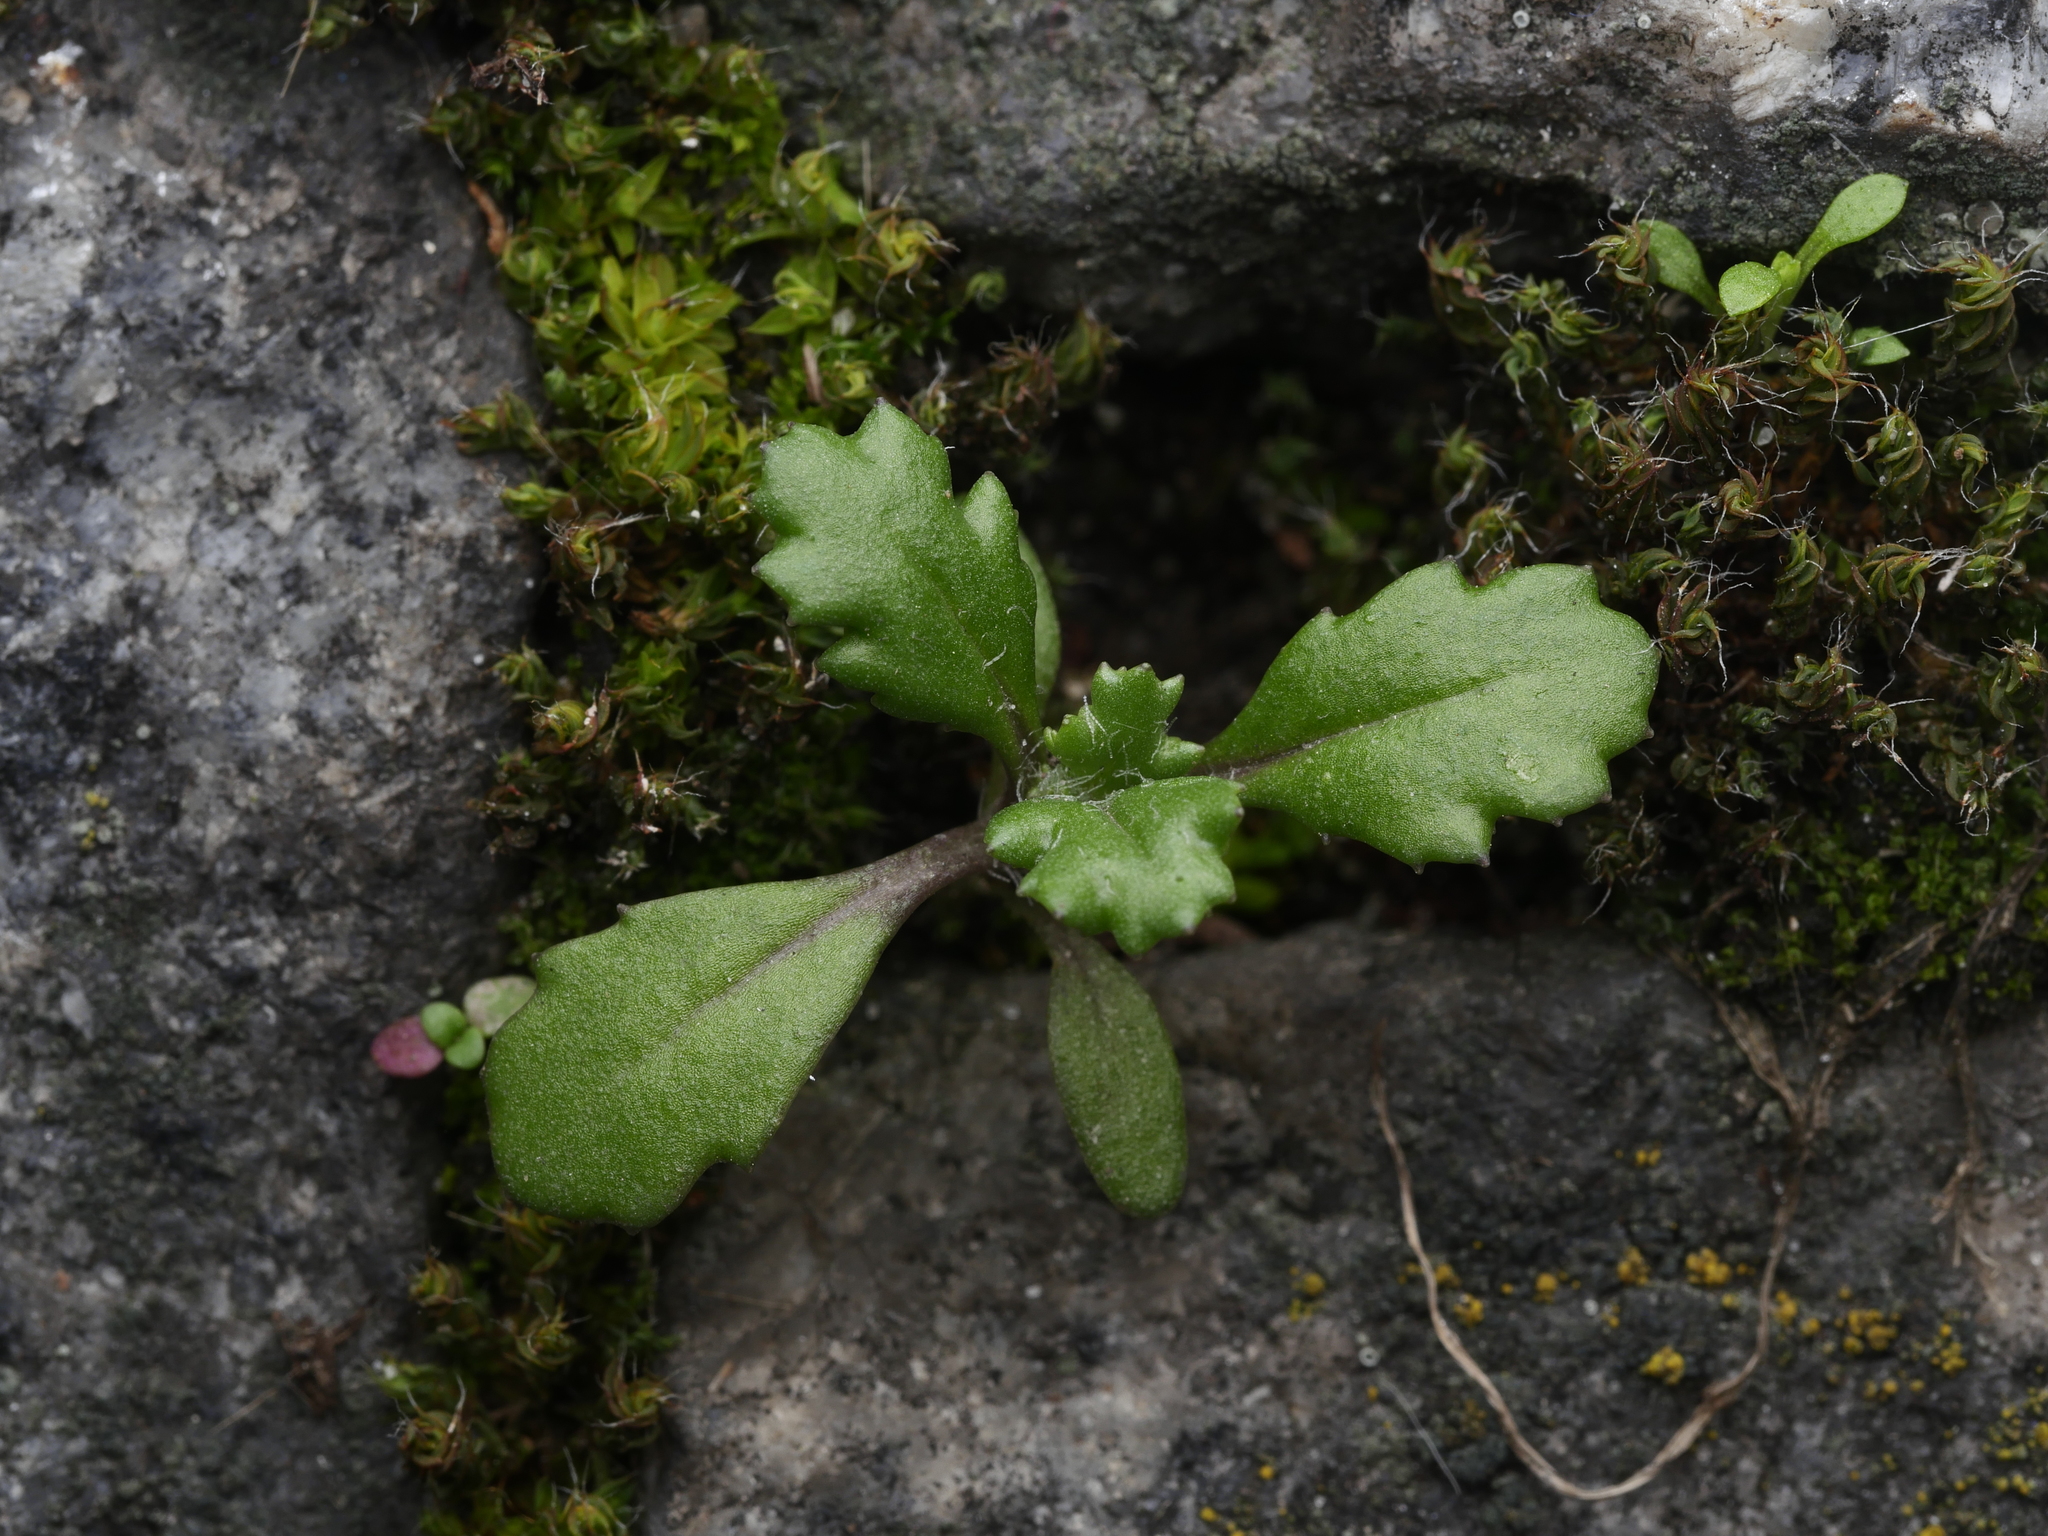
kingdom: Plantae
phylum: Tracheophyta
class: Magnoliopsida
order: Asterales
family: Asteraceae
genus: Senecio
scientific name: Senecio vulgaris
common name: Old-man-in-the-spring
